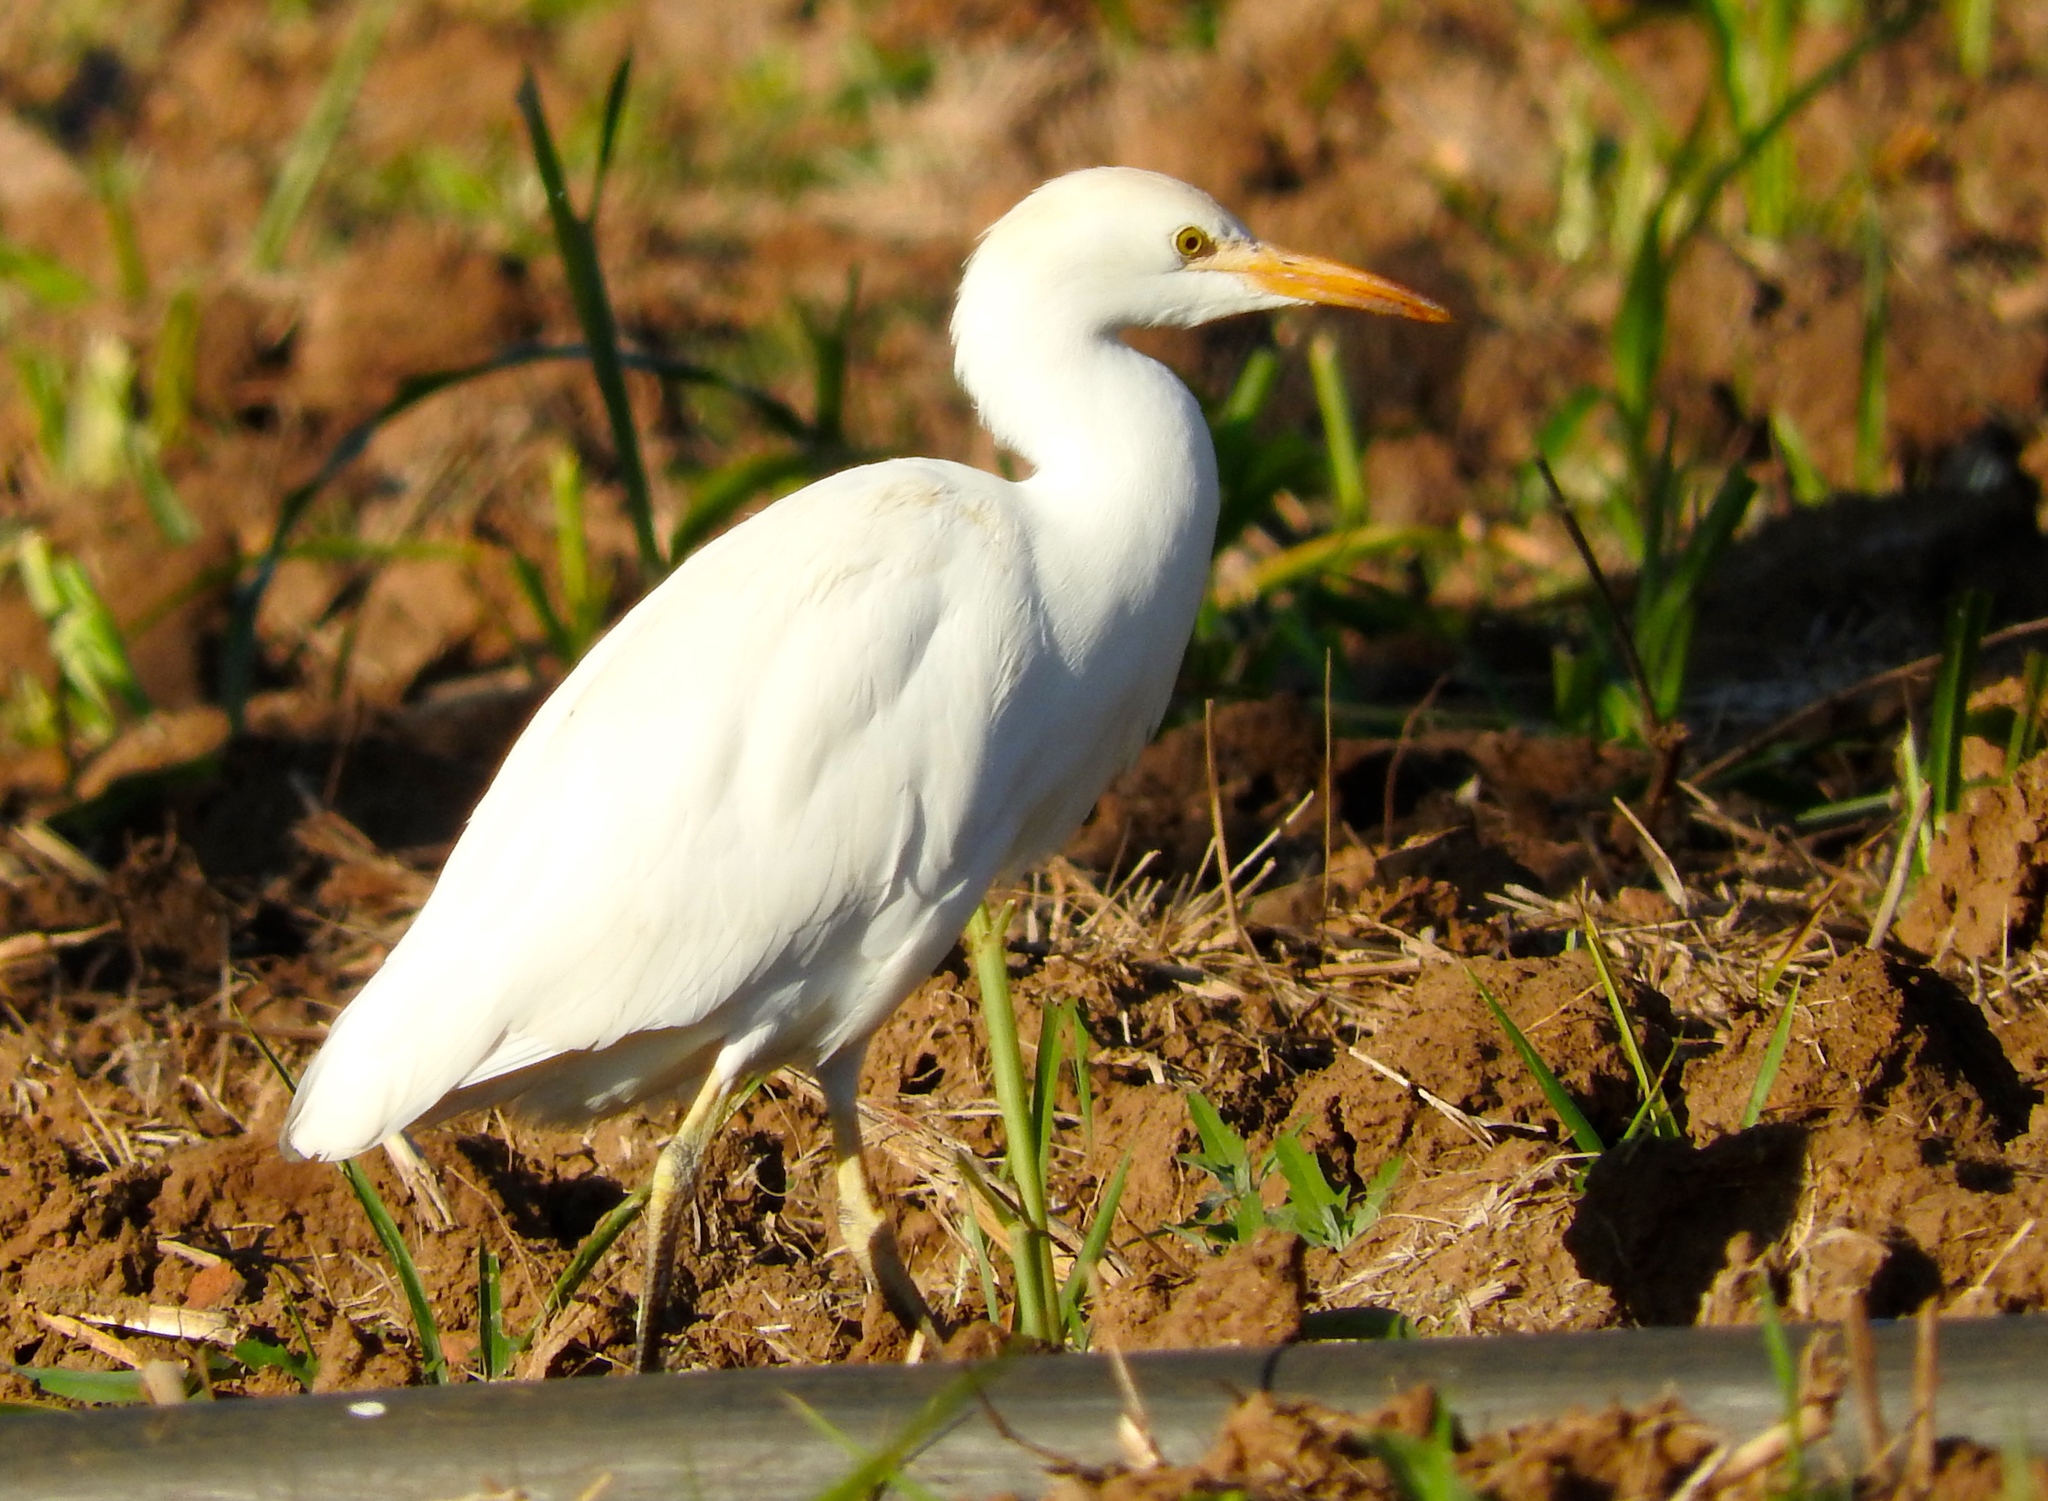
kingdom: Animalia
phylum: Chordata
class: Aves
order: Pelecaniformes
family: Ardeidae
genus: Bubulcus
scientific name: Bubulcus ibis
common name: Cattle egret
